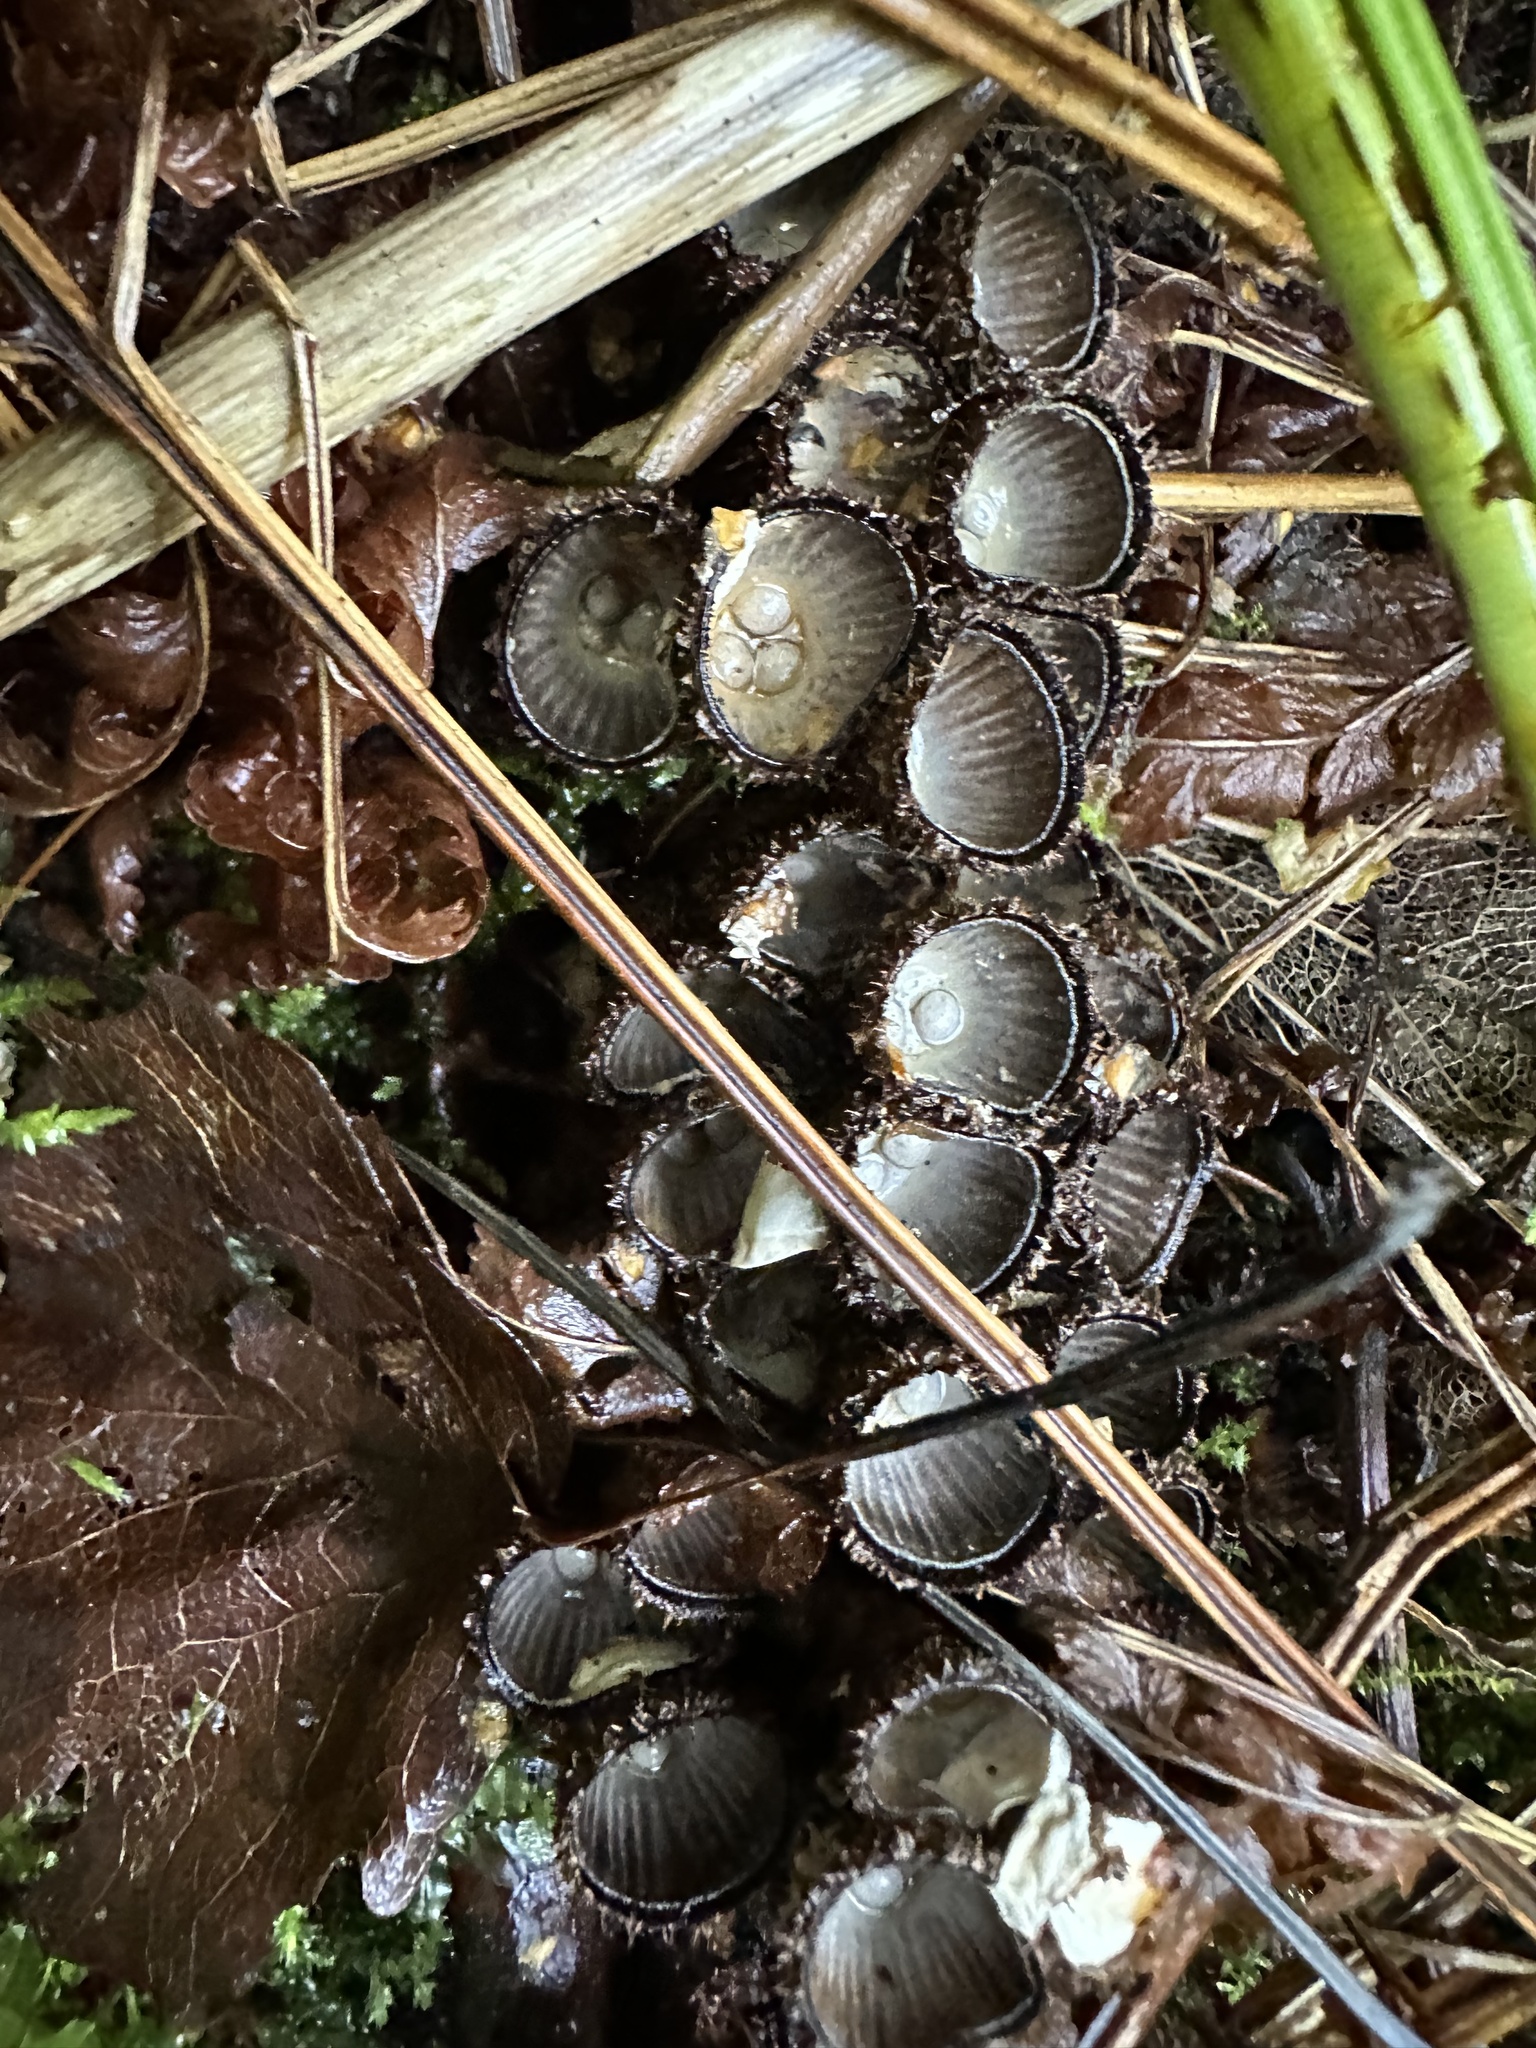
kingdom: Fungi
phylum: Basidiomycota
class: Agaricomycetes
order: Agaricales
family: Agaricaceae
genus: Cyathus
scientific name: Cyathus striatus
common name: Fluted bird's nest
